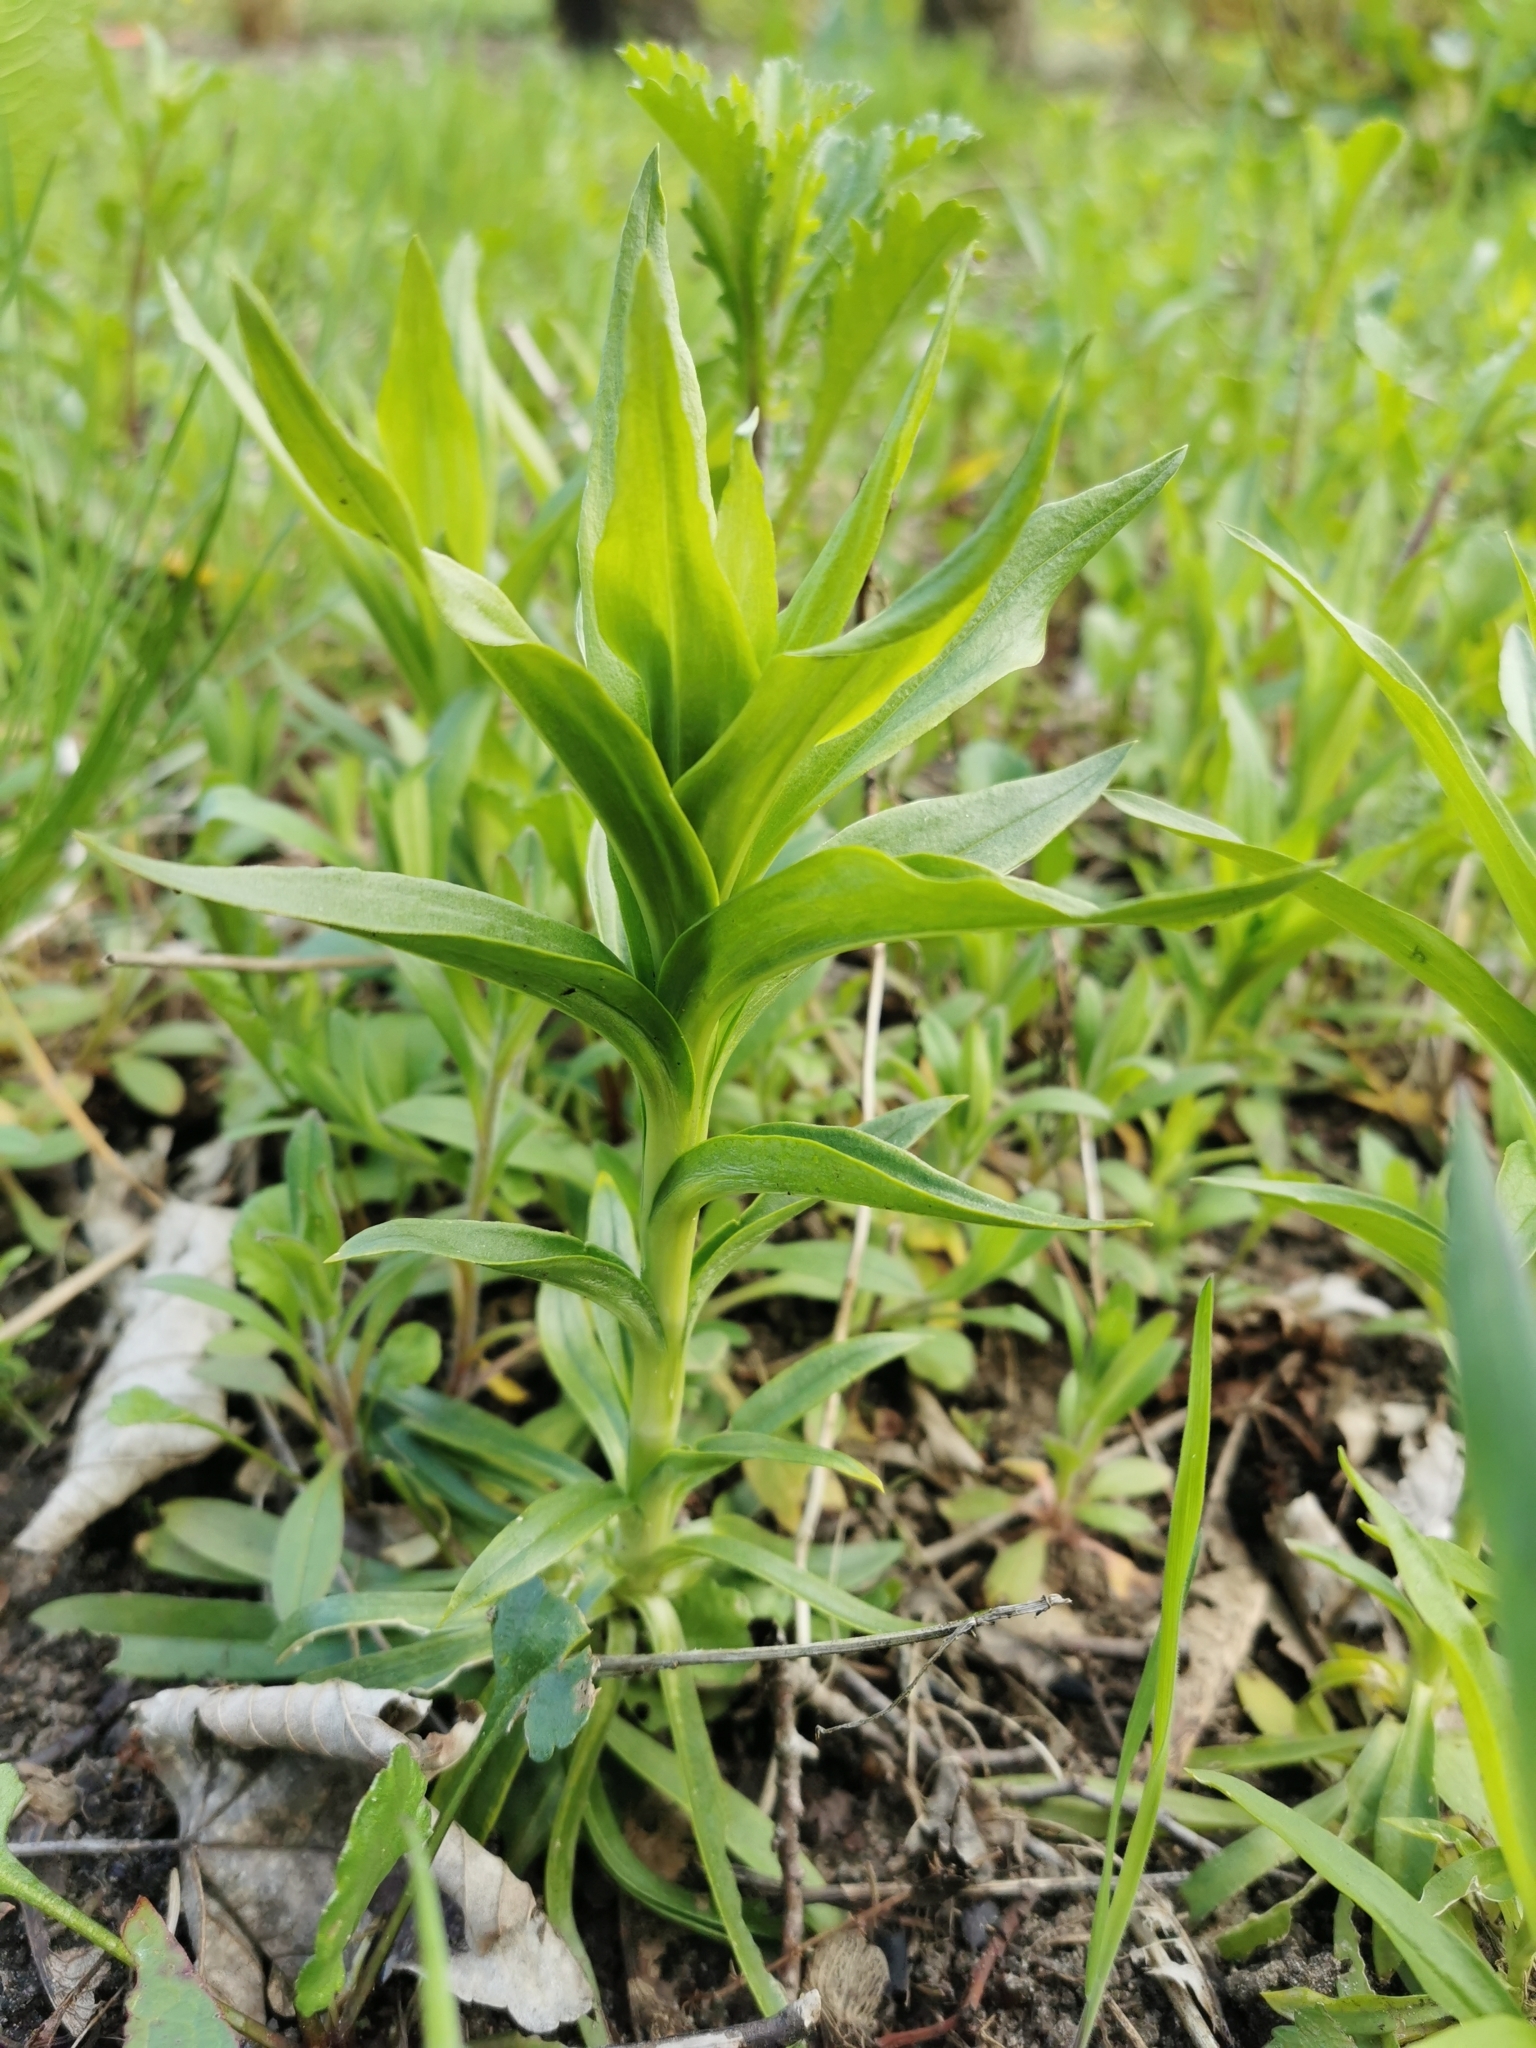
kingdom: Plantae
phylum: Tracheophyta
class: Magnoliopsida
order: Caryophyllales
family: Caryophyllaceae
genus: Dianthus
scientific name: Dianthus barbatus
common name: Sweet-william
